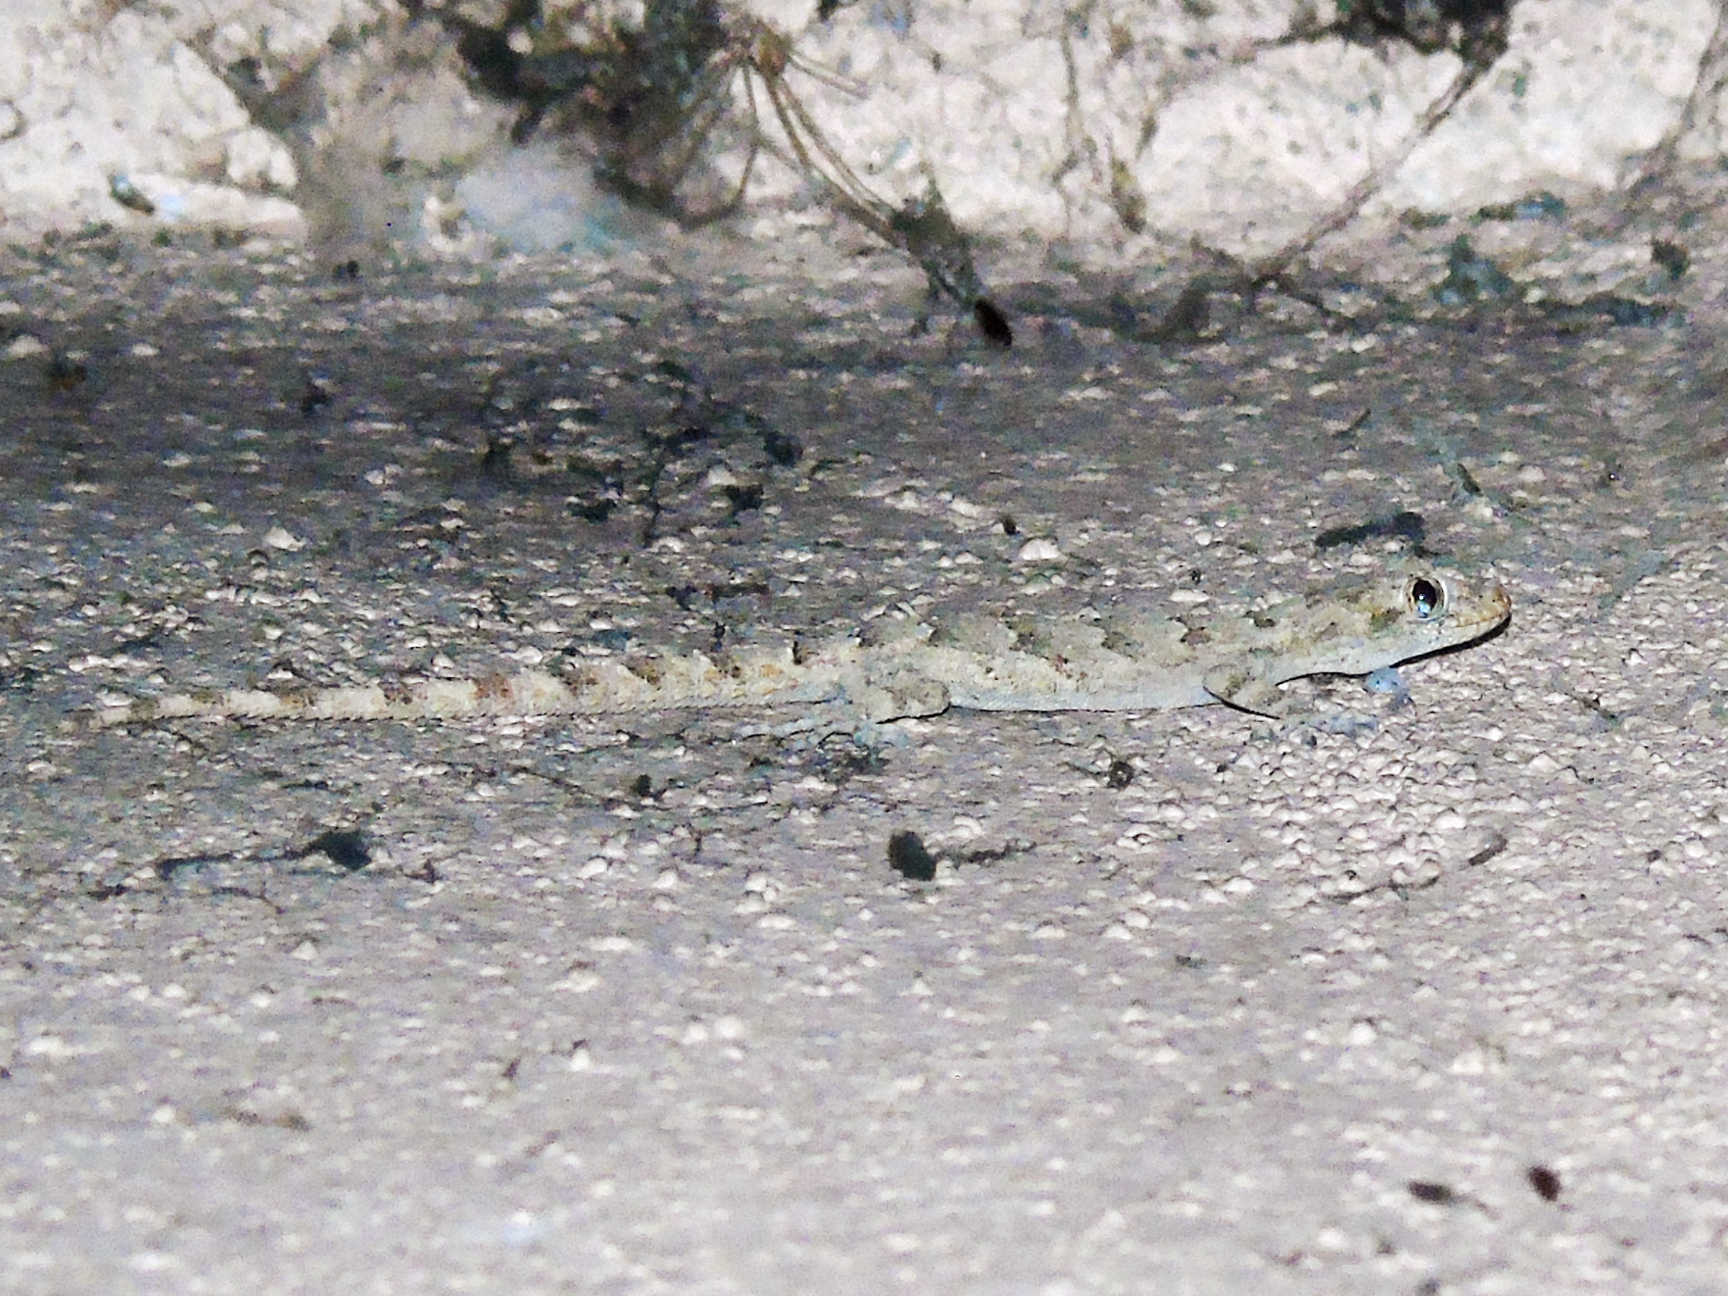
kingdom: Animalia
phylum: Chordata
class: Squamata
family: Gekkonidae
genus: Mediodactylus
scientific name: Mediodactylus heterocercus
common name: Asia minor thin-toed gecko
